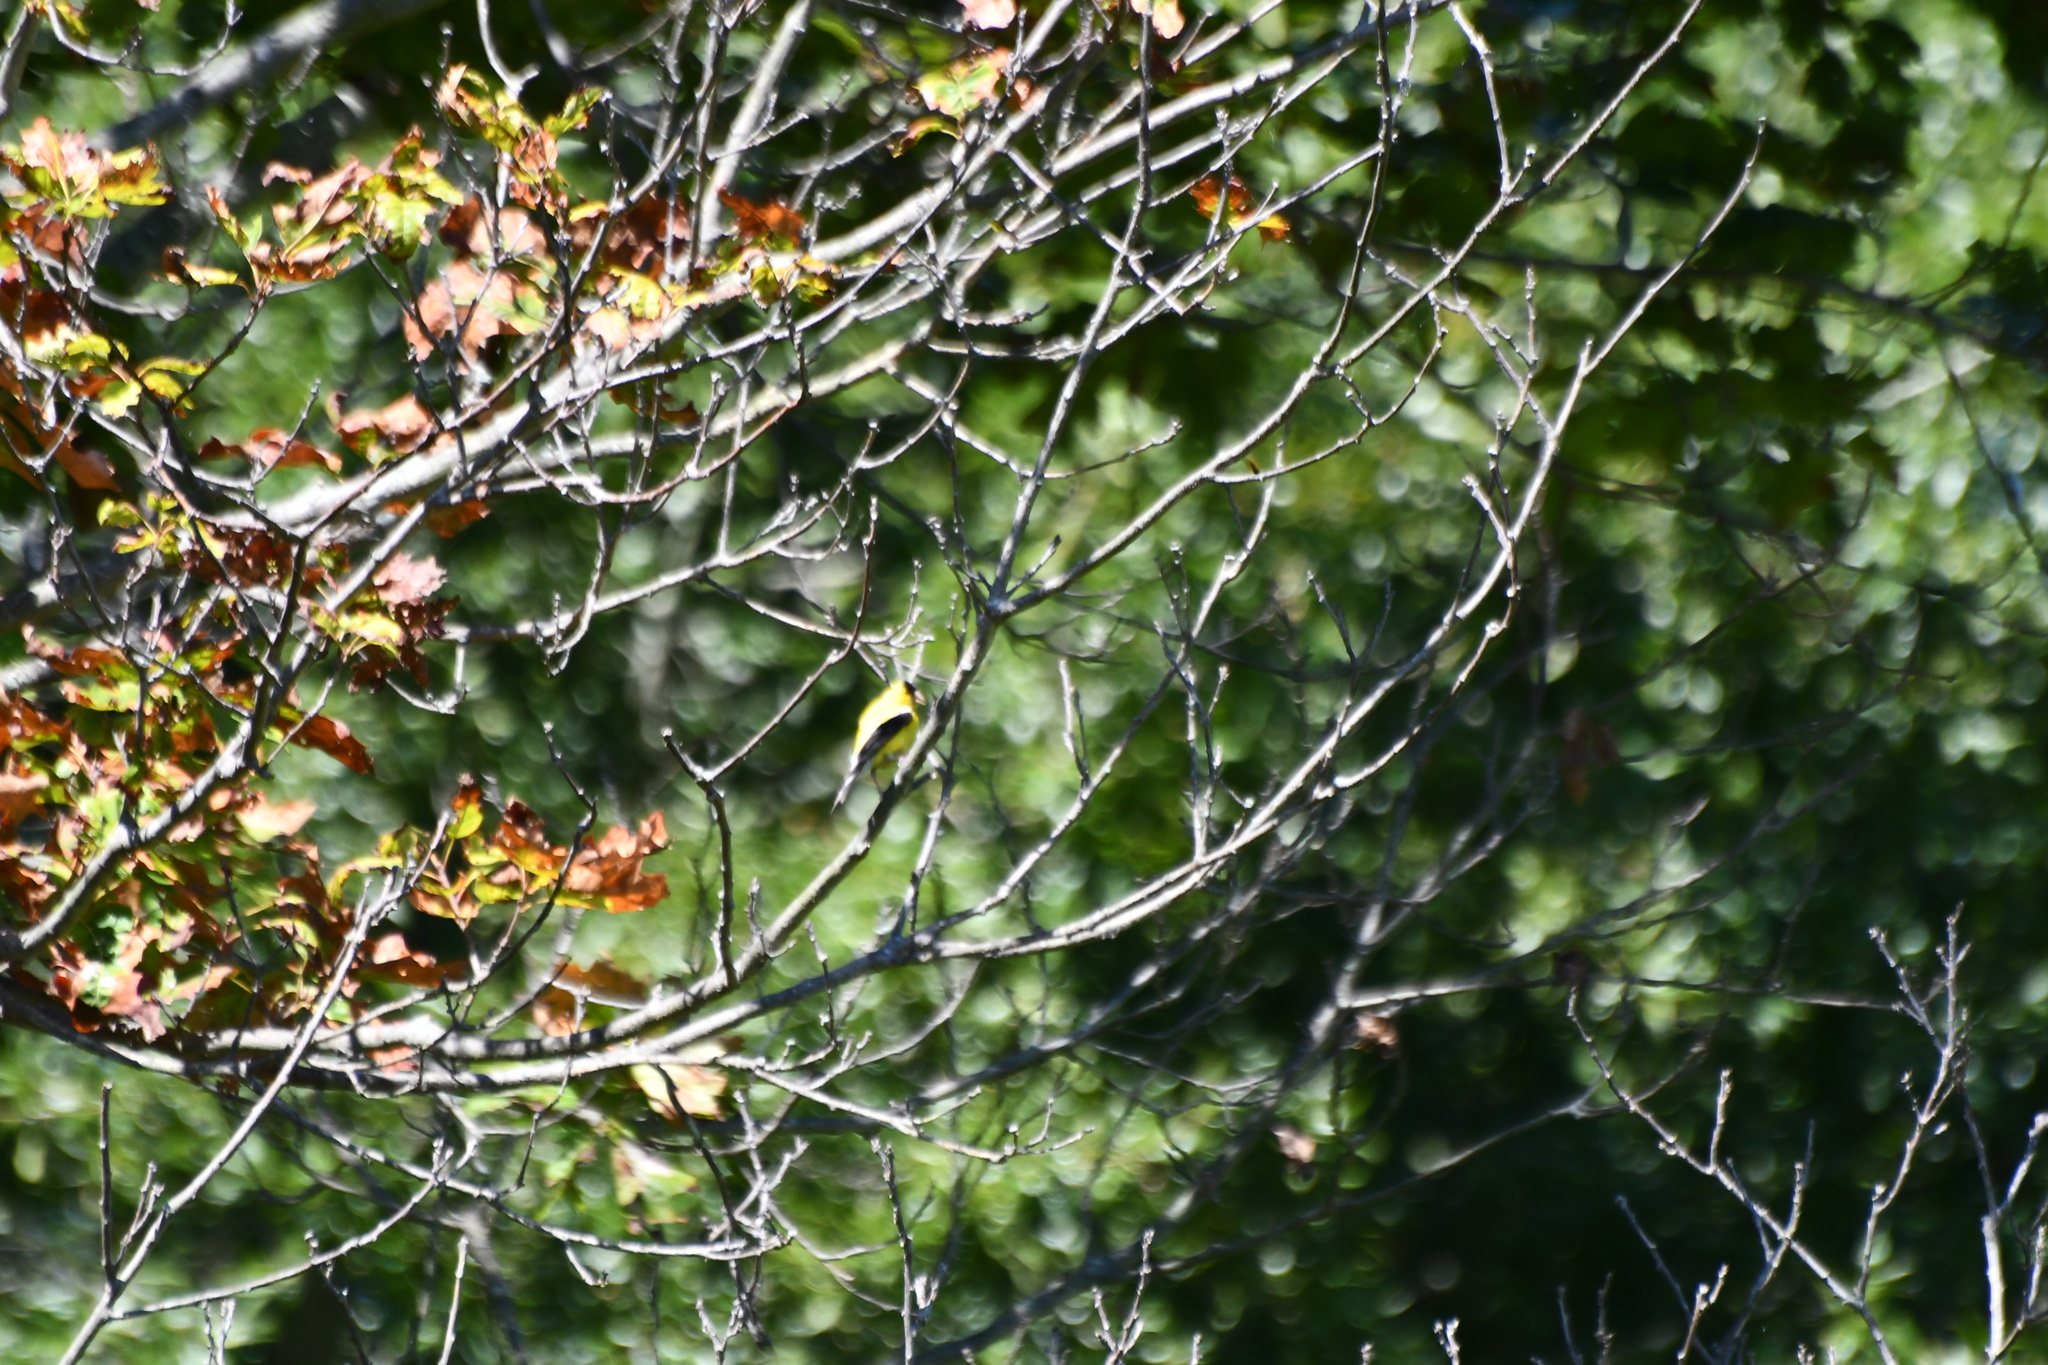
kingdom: Animalia
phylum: Chordata
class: Aves
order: Passeriformes
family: Fringillidae
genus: Spinus
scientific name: Spinus tristis
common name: American goldfinch
